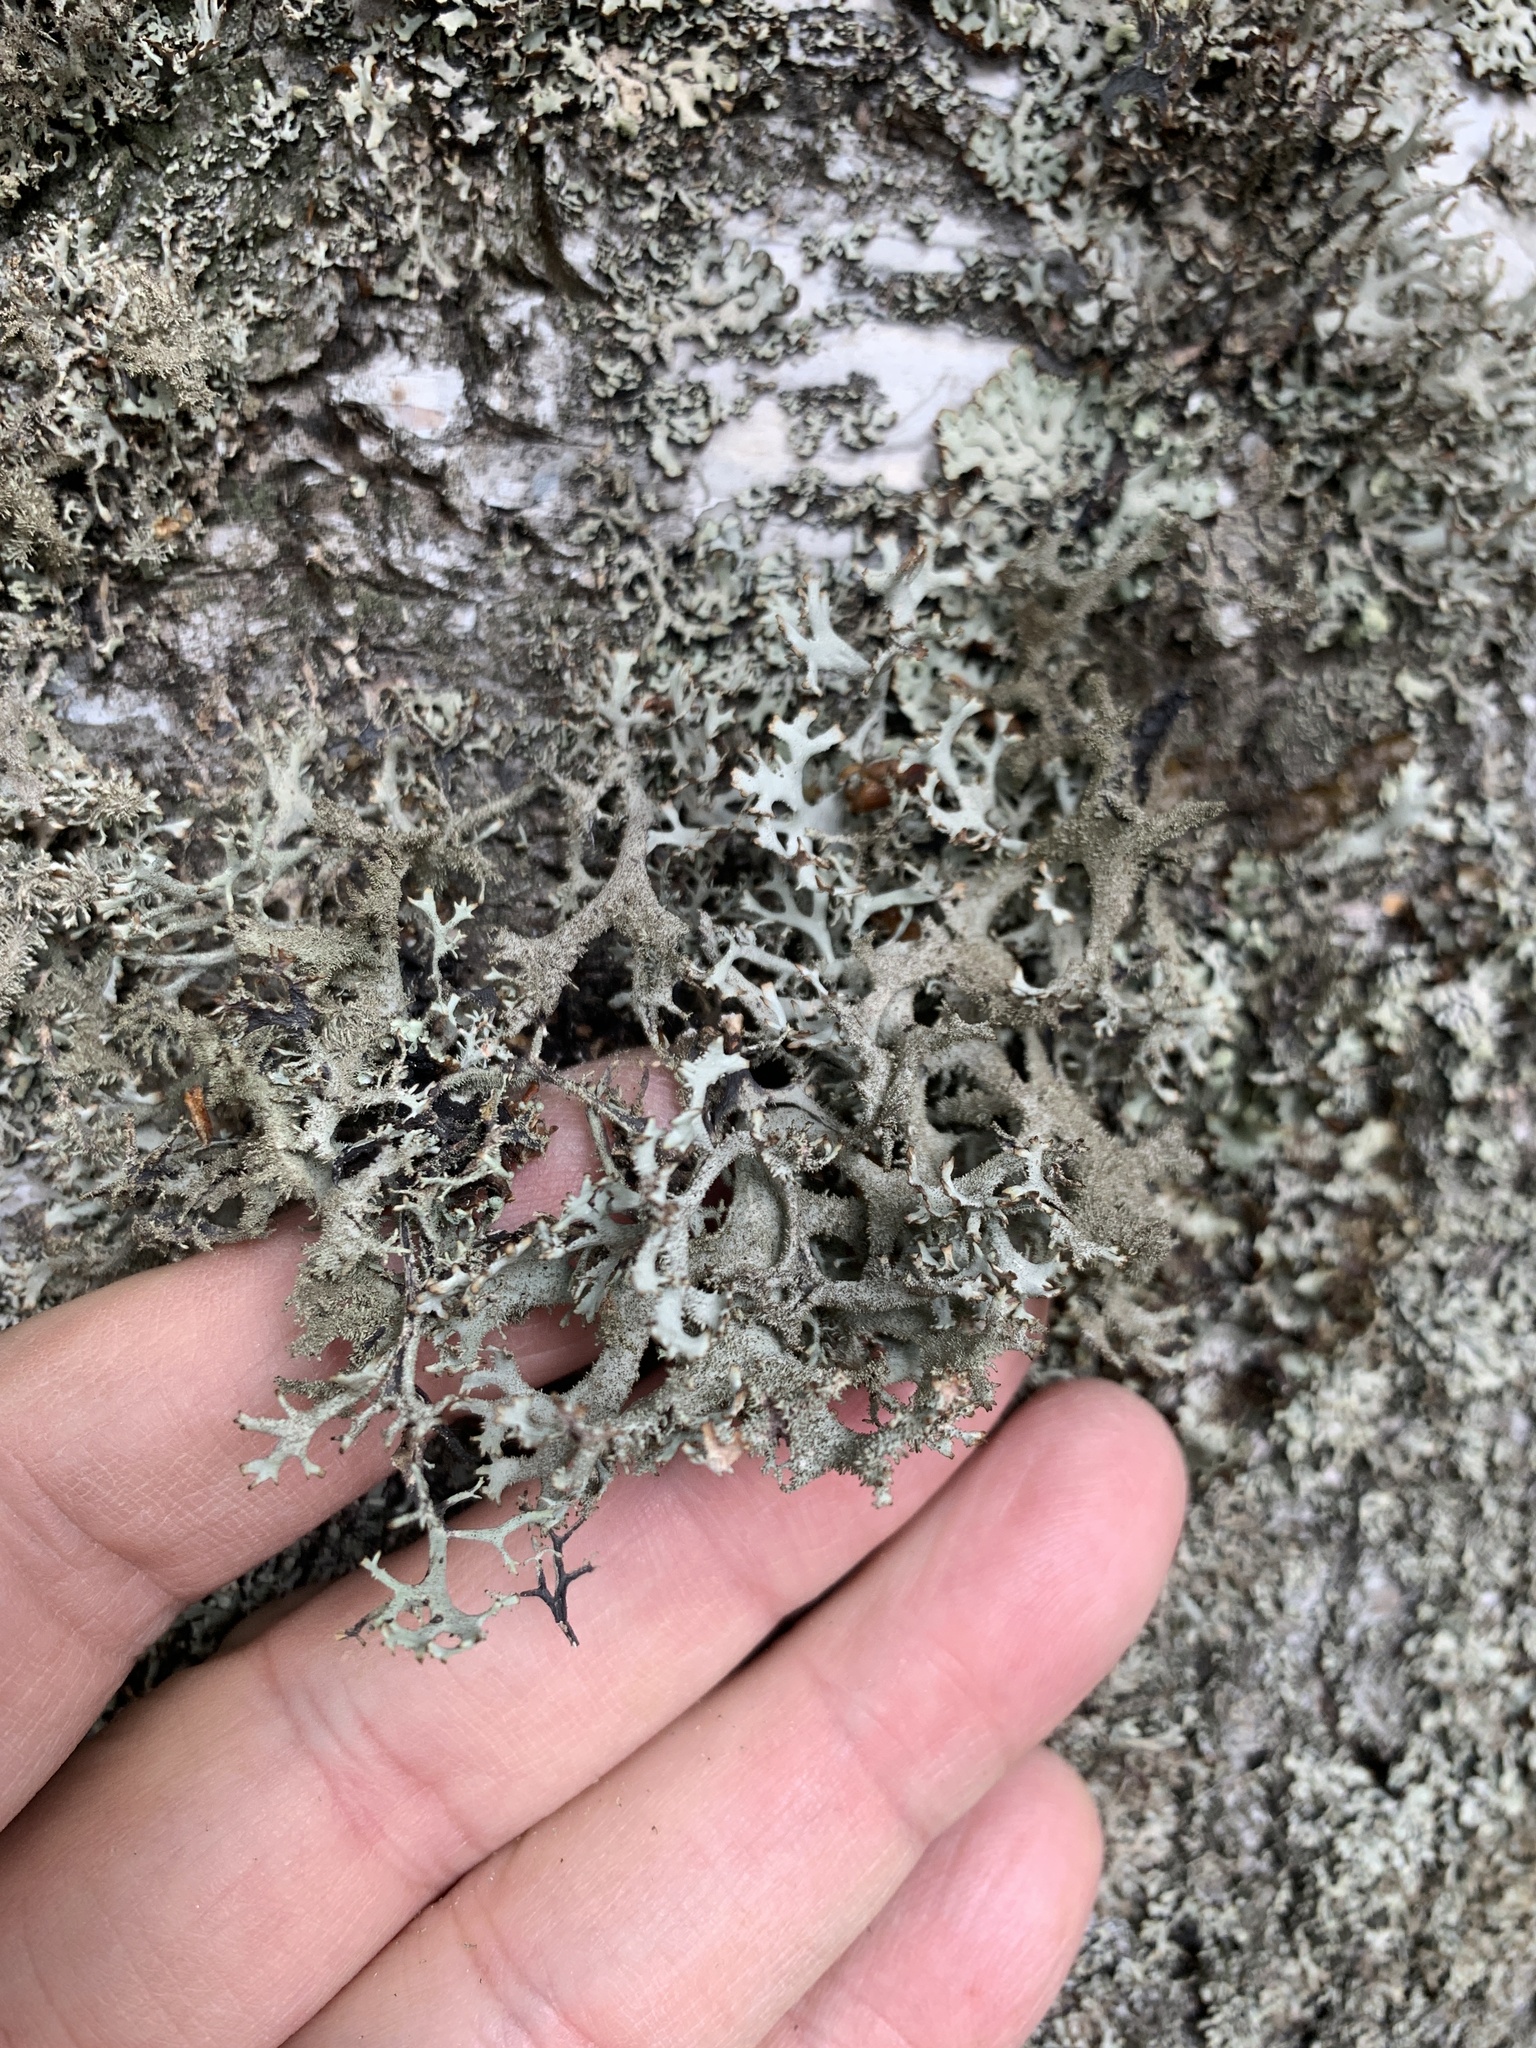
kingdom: Fungi
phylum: Ascomycota
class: Lecanoromycetes
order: Lecanorales
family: Parmeliaceae
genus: Pseudevernia
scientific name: Pseudevernia furfuracea
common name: Tree moss
